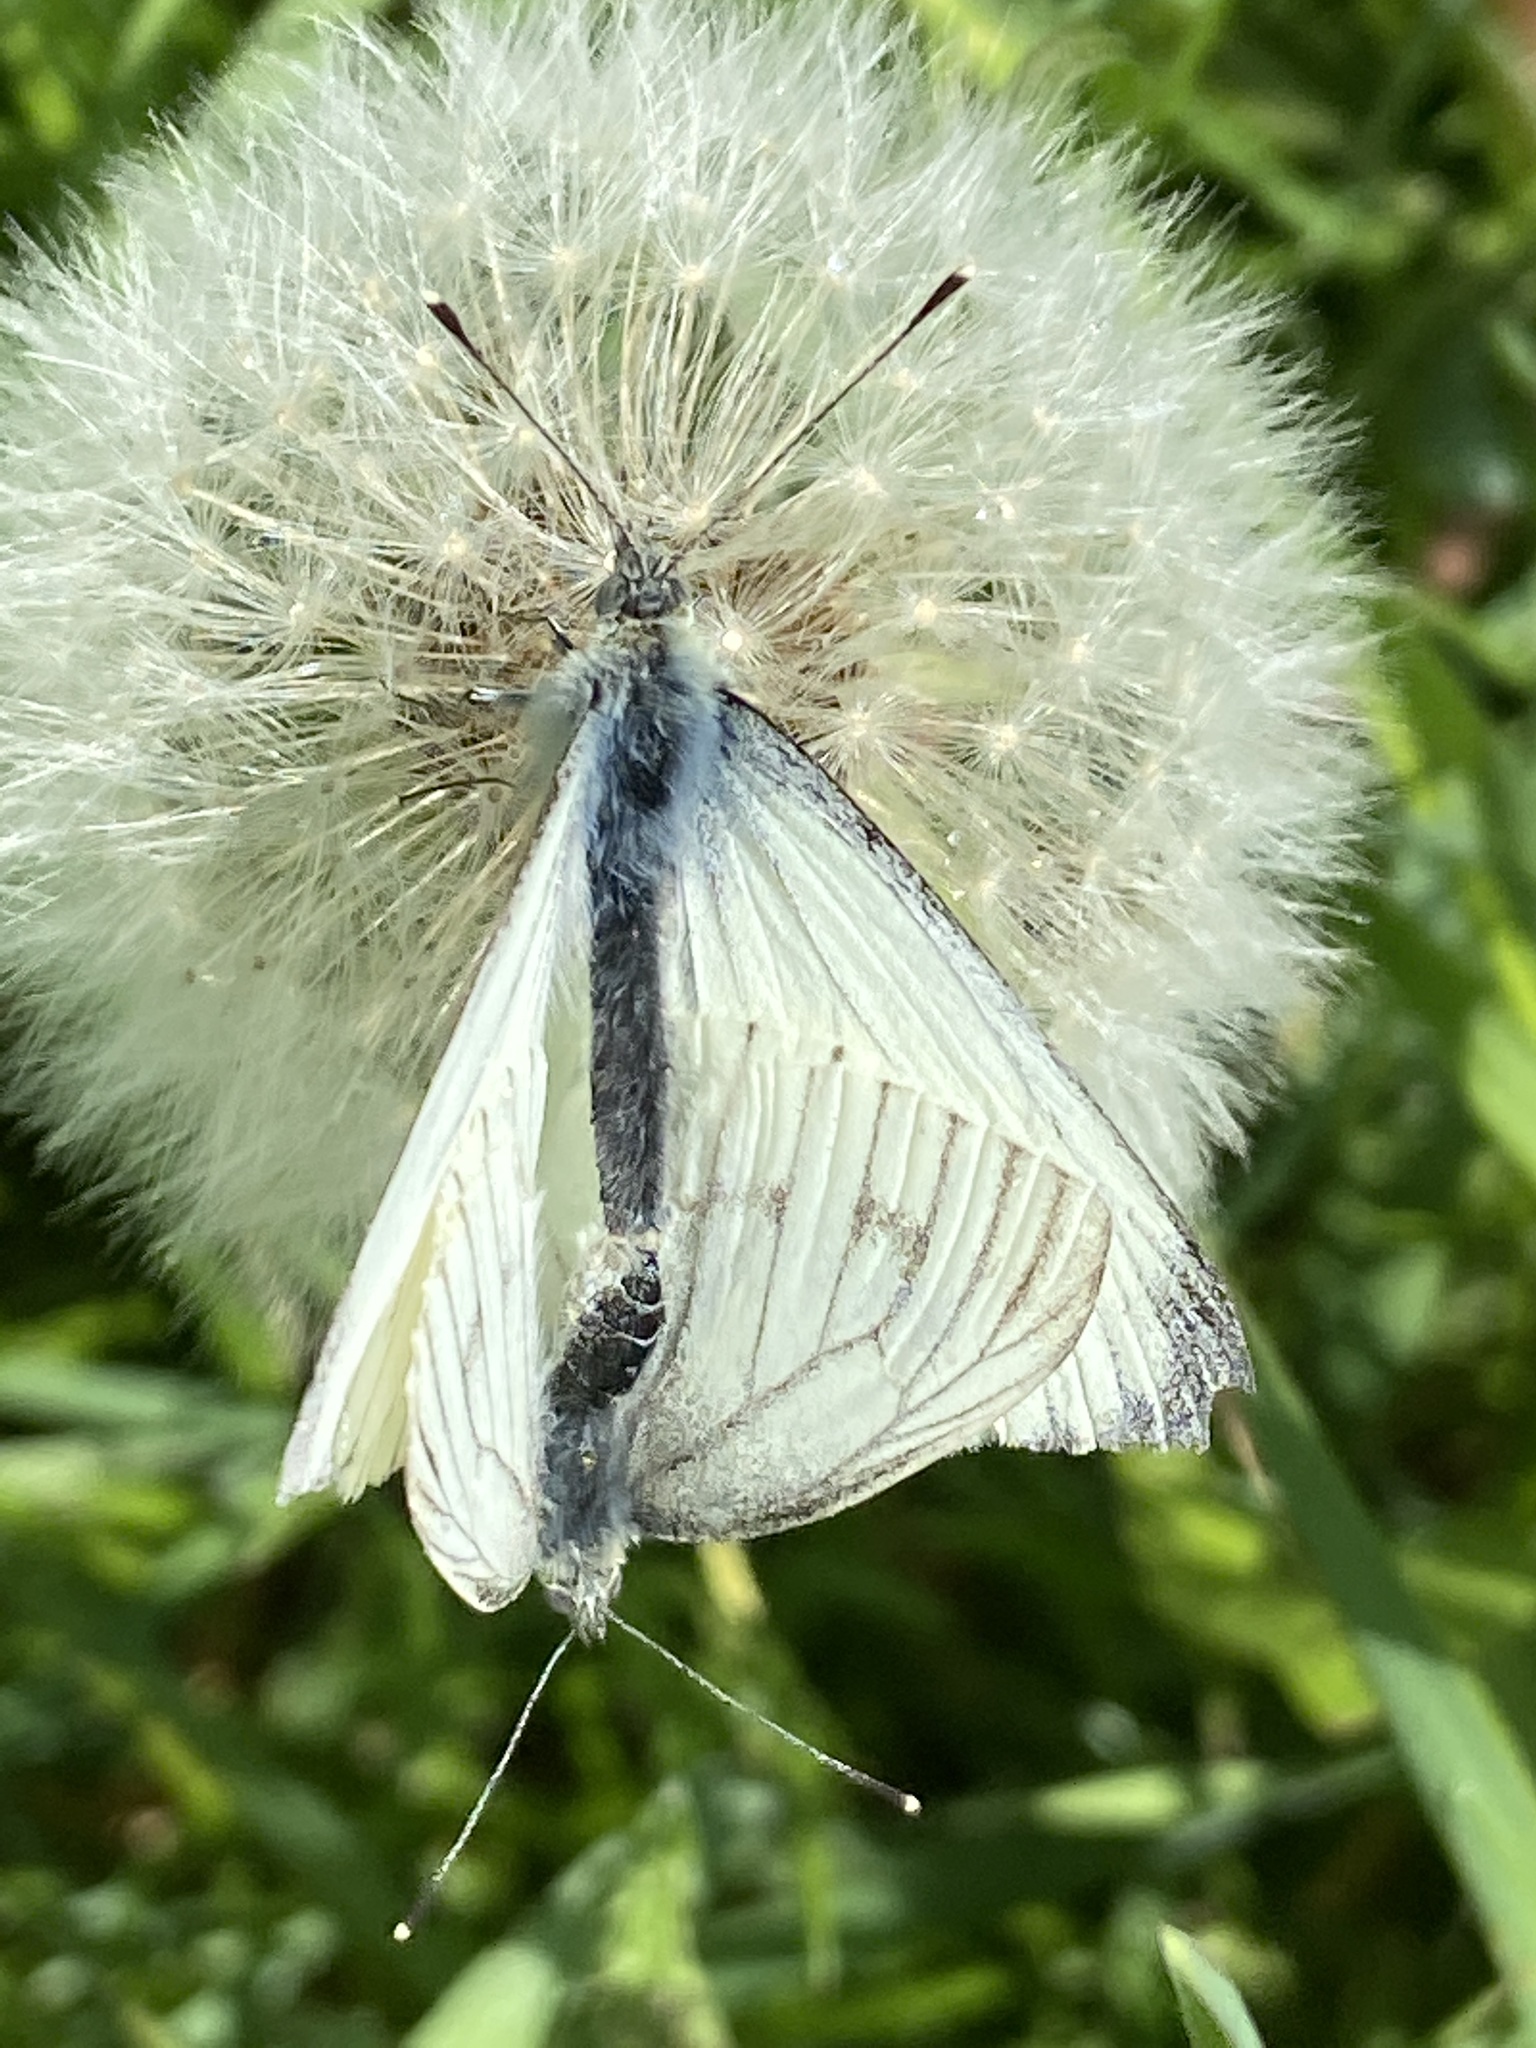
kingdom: Animalia
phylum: Arthropoda
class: Insecta
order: Lepidoptera
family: Pieridae
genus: Pieris
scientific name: Pieris napi
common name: Green-veined white
